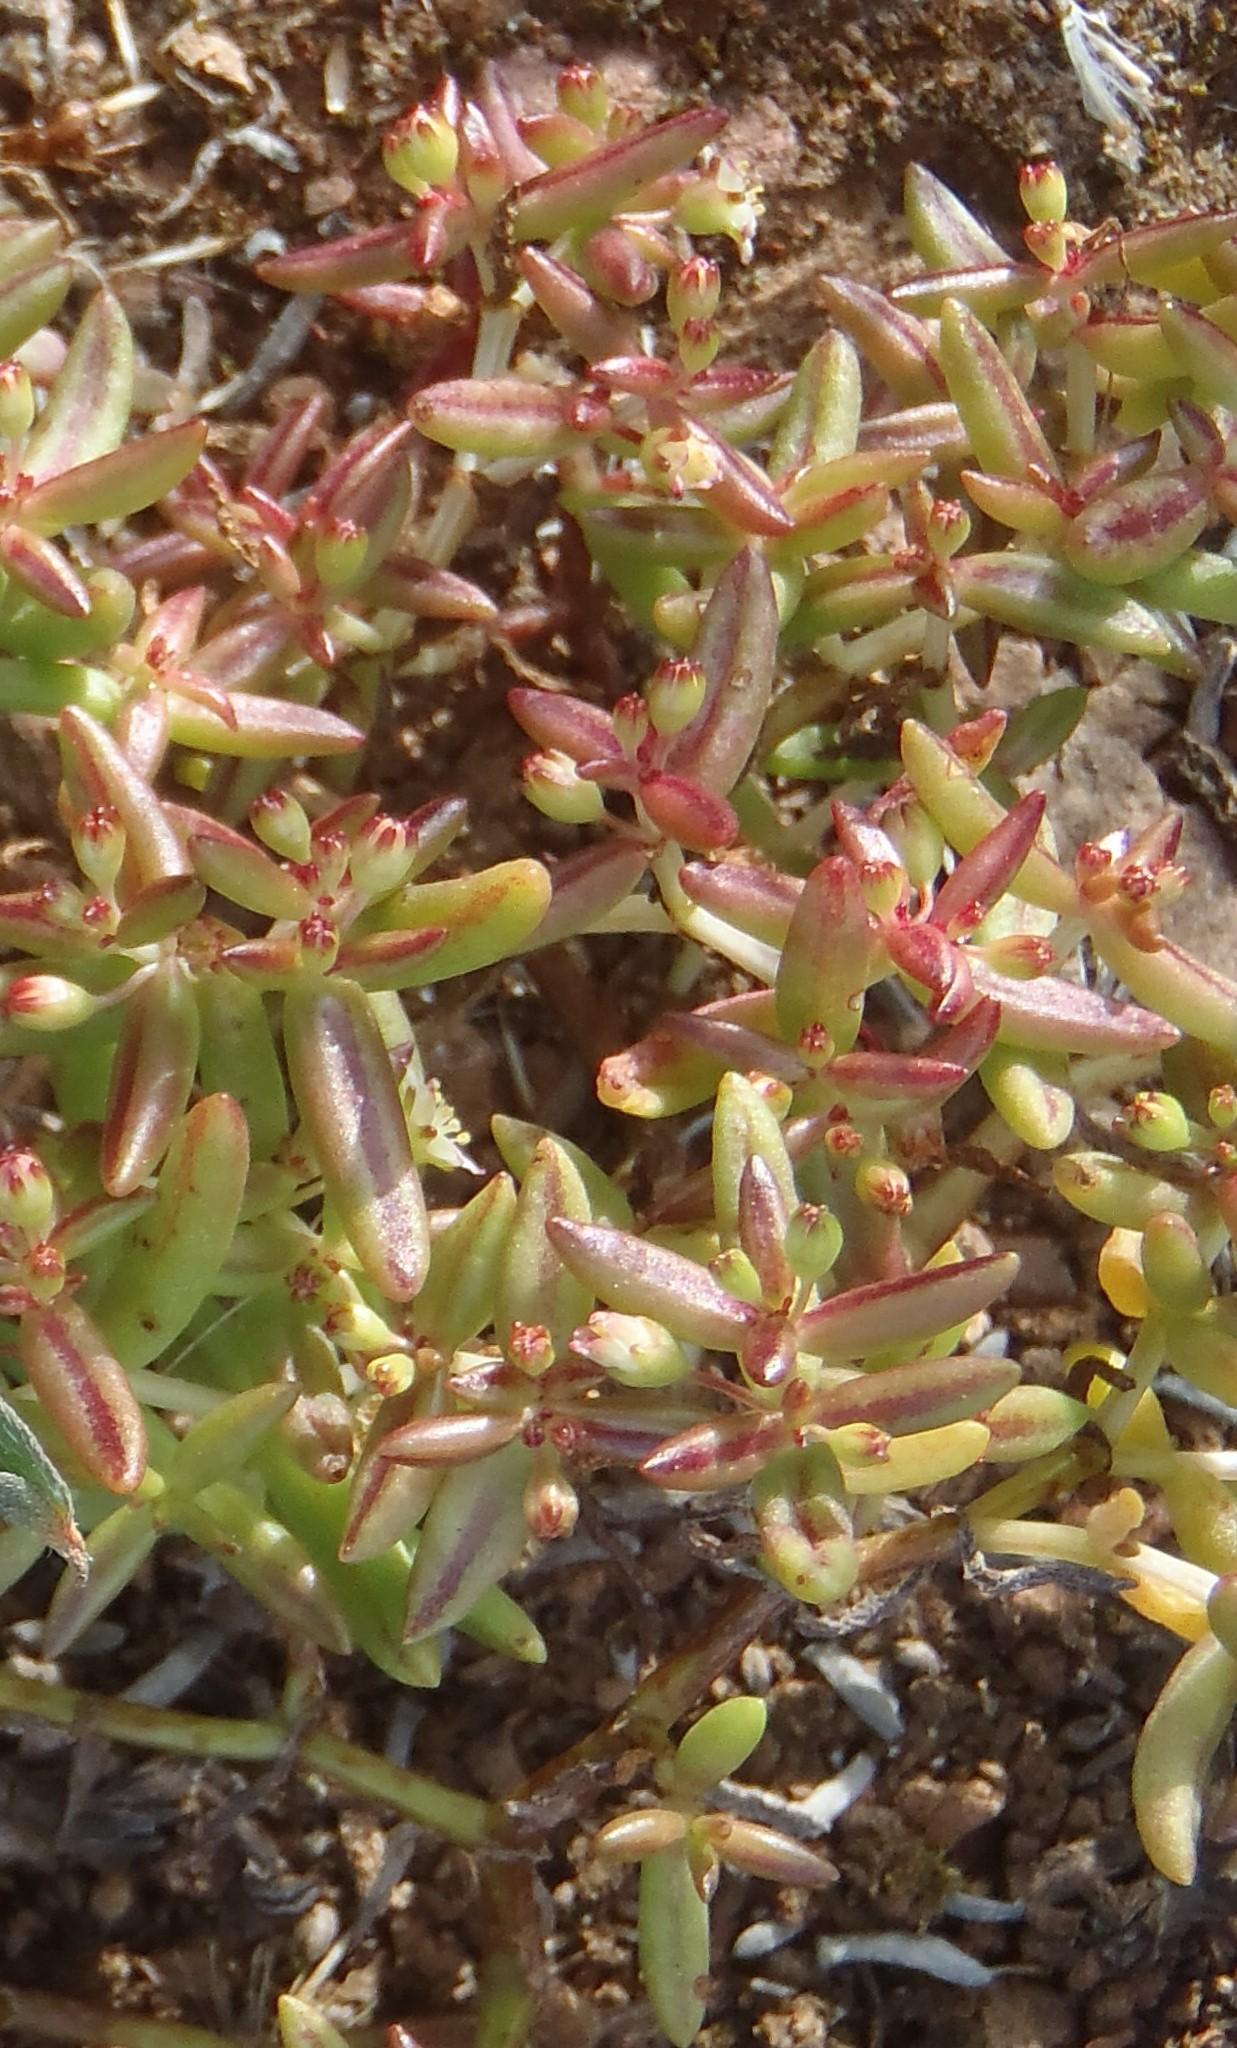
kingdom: Plantae
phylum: Tracheophyta
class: Magnoliopsida
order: Saxifragales
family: Crassulaceae
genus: Crassula
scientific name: Crassula expansa
